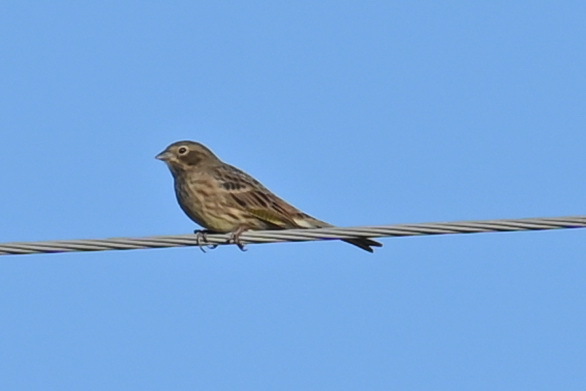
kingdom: Animalia
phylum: Chordata
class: Aves
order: Passeriformes
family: Emberizidae
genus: Emberiza
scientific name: Emberiza citrinella
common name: Yellowhammer
